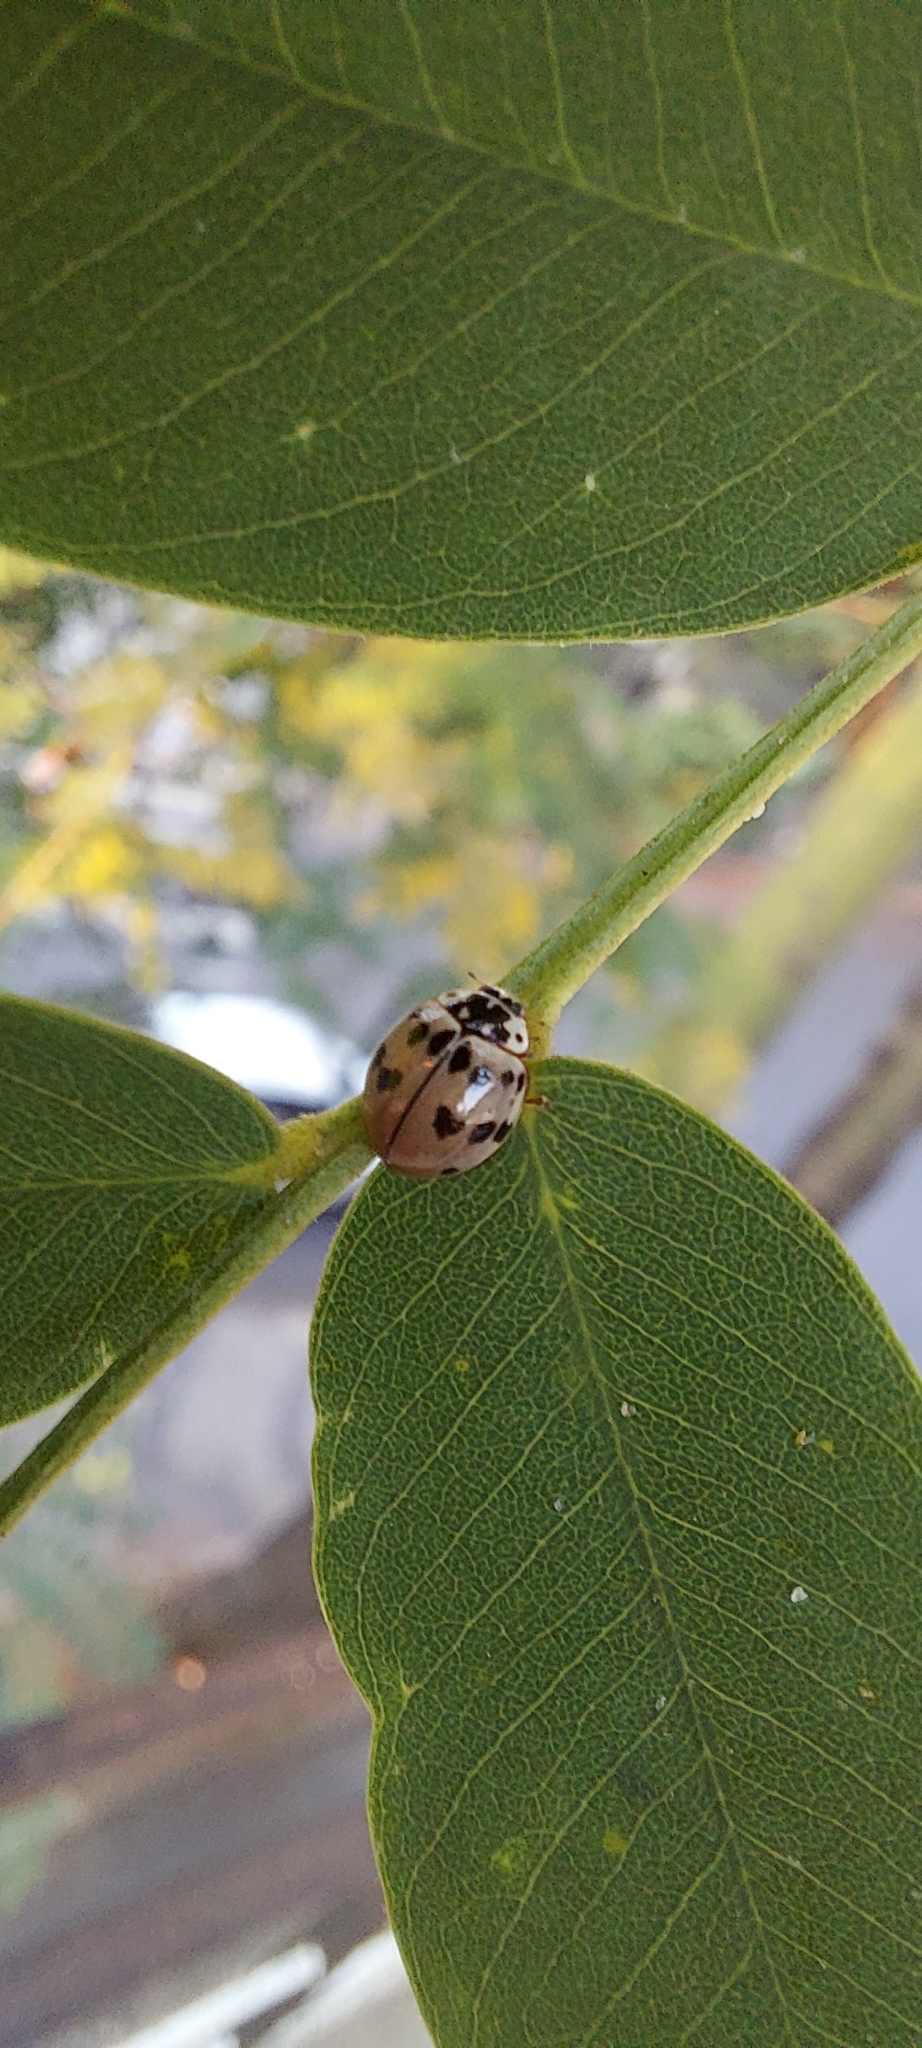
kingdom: Animalia
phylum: Arthropoda
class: Insecta
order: Coleoptera
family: Coccinellidae
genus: Olla
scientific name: Olla v-nigrum
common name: Ashy gray lady beetle
